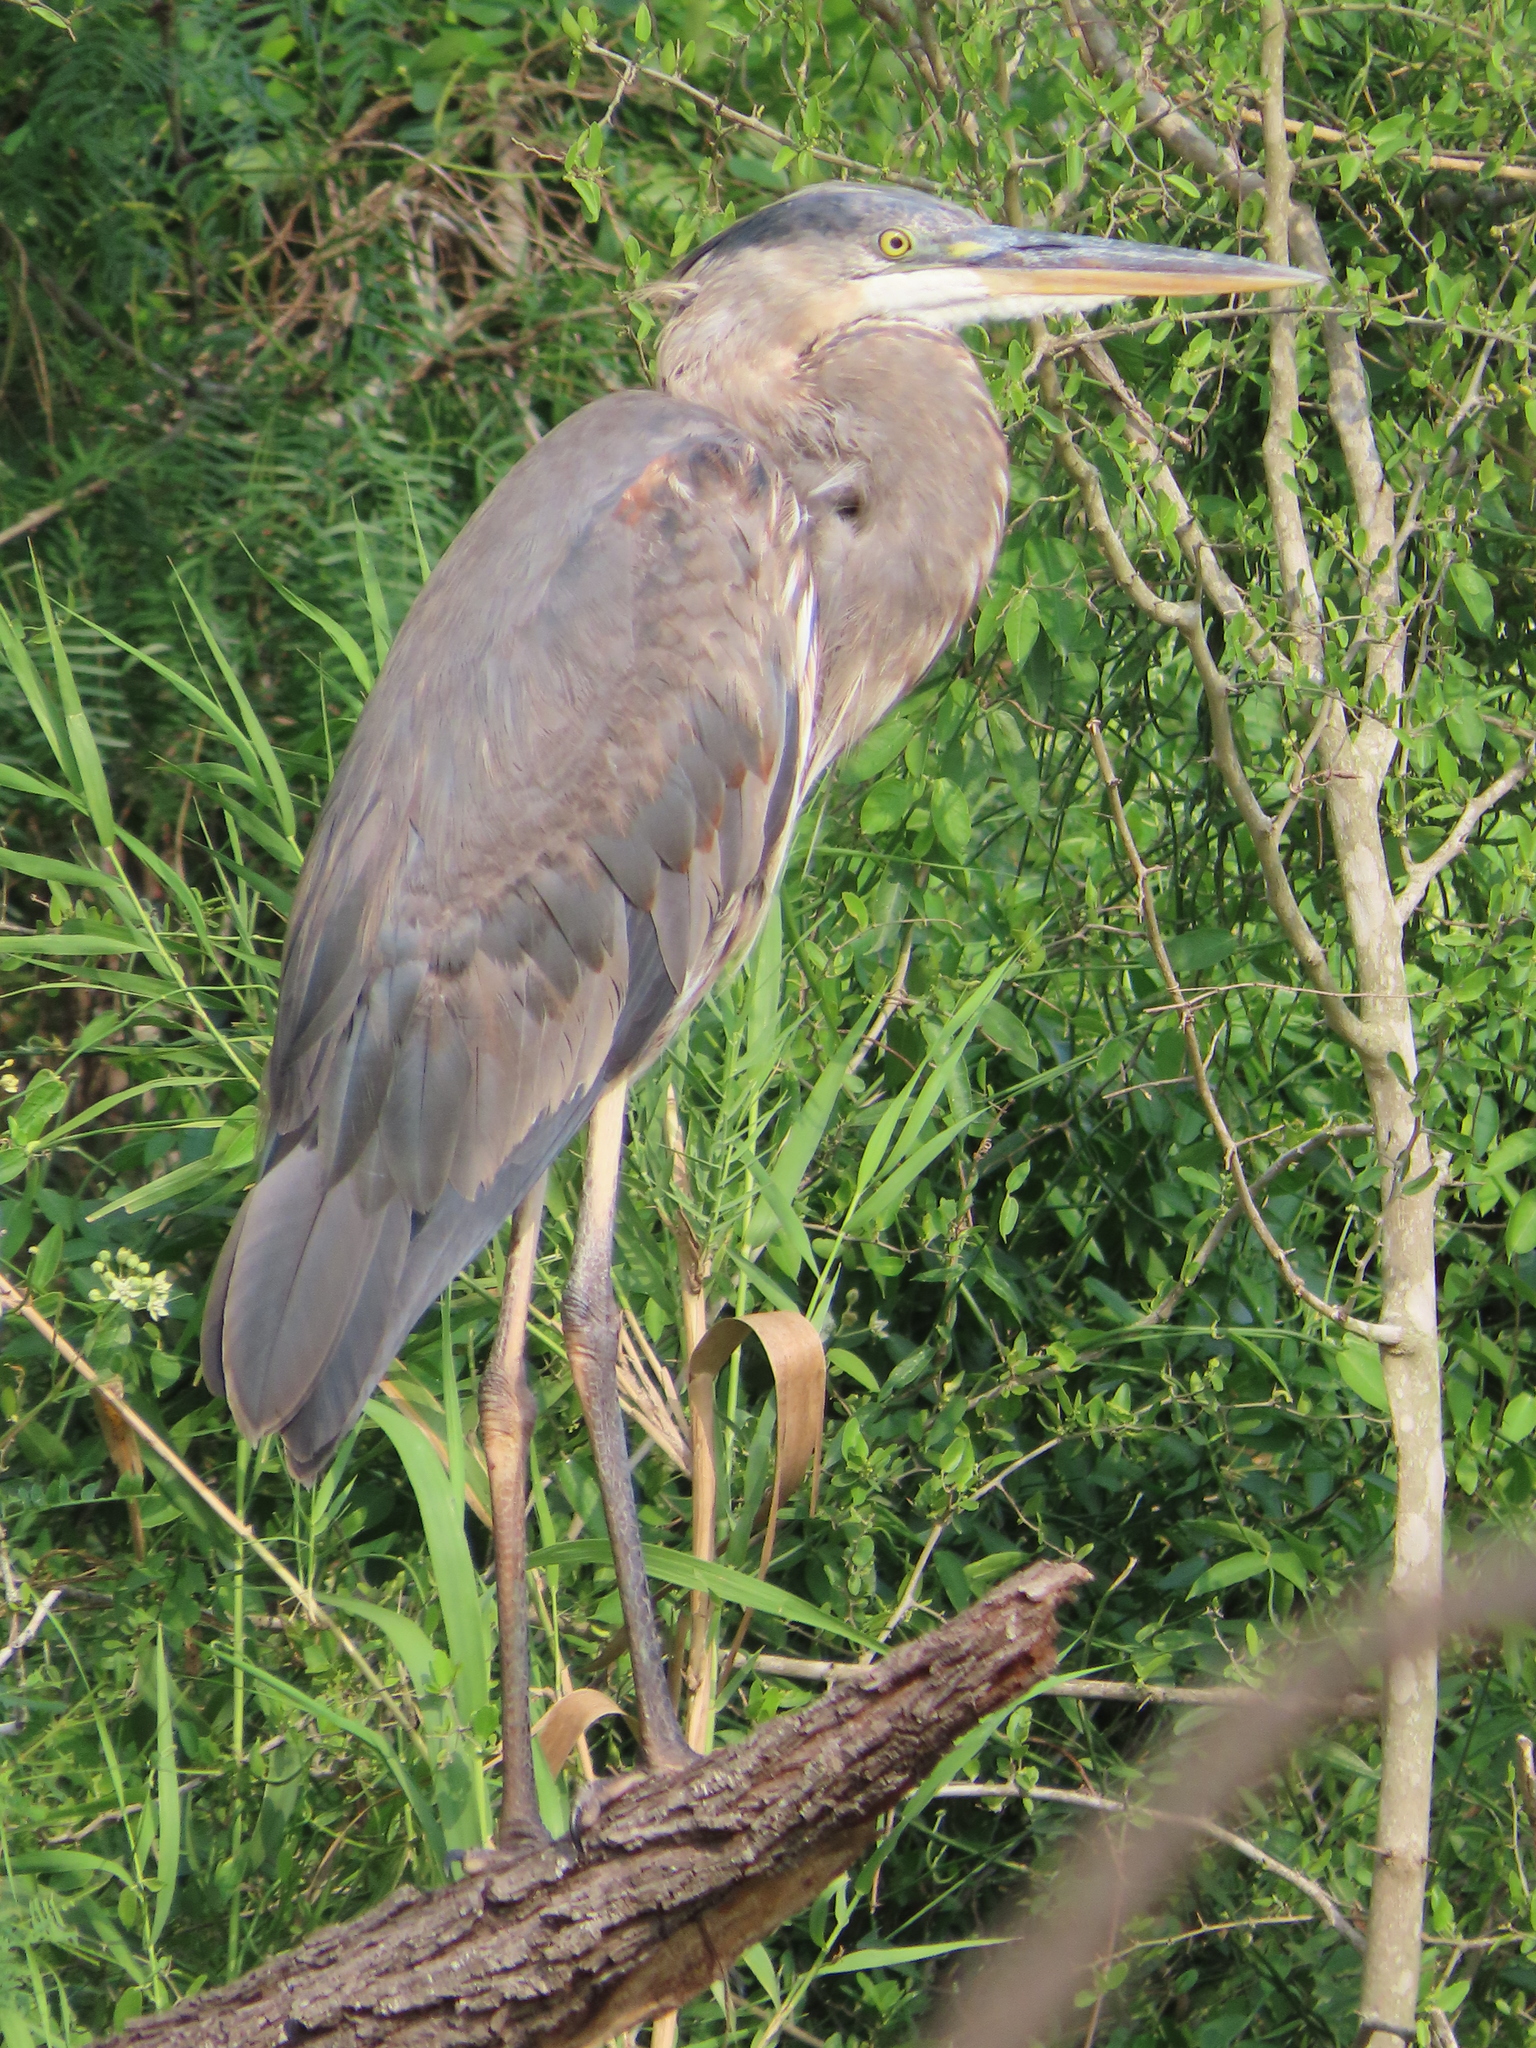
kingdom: Animalia
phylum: Chordata
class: Aves
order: Pelecaniformes
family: Ardeidae
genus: Ardea
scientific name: Ardea herodias
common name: Great blue heron
